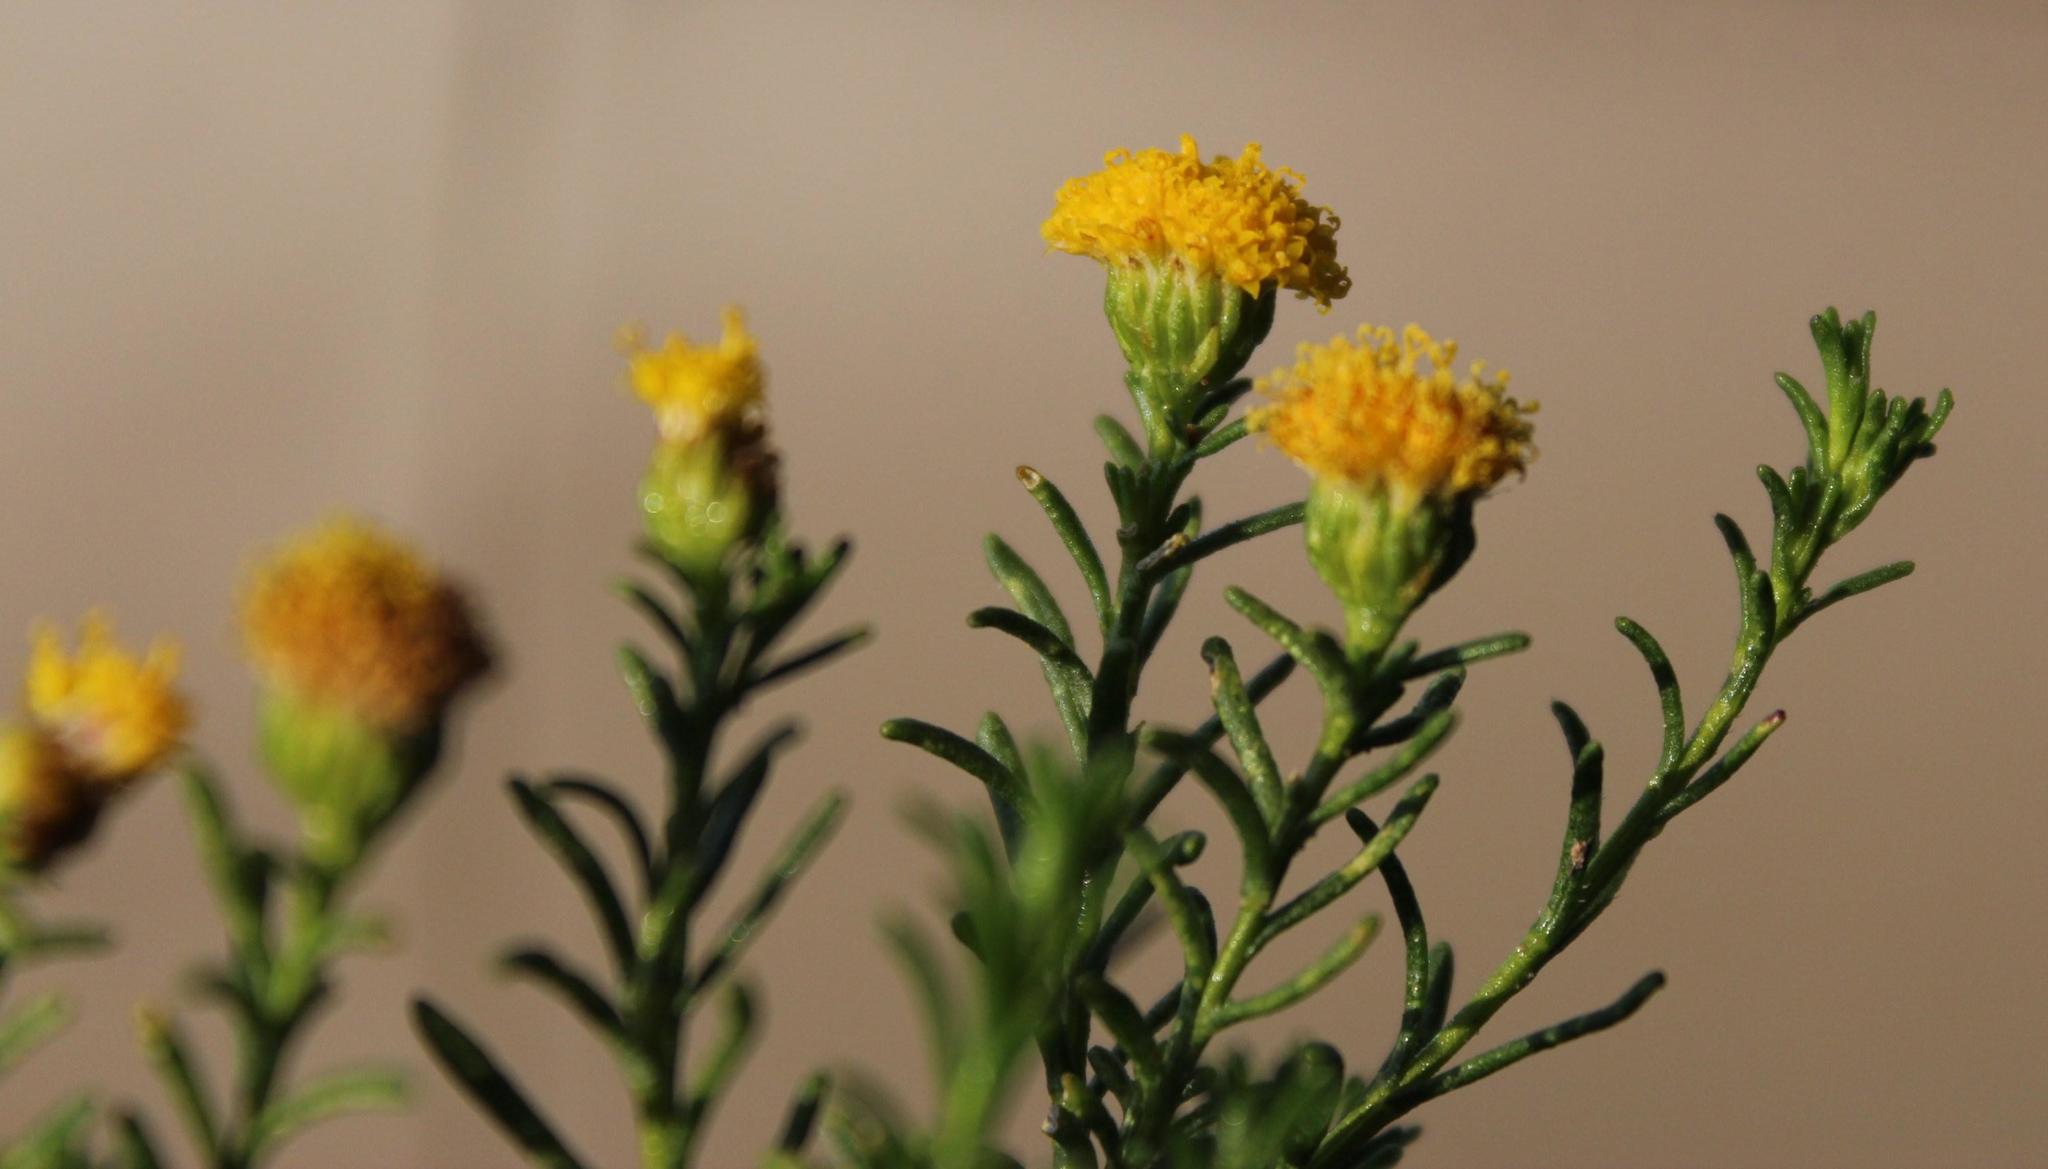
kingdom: Plantae
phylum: Tracheophyta
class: Magnoliopsida
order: Asterales
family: Asteraceae
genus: Chrysocoma
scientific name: Chrysocoma ciliata
